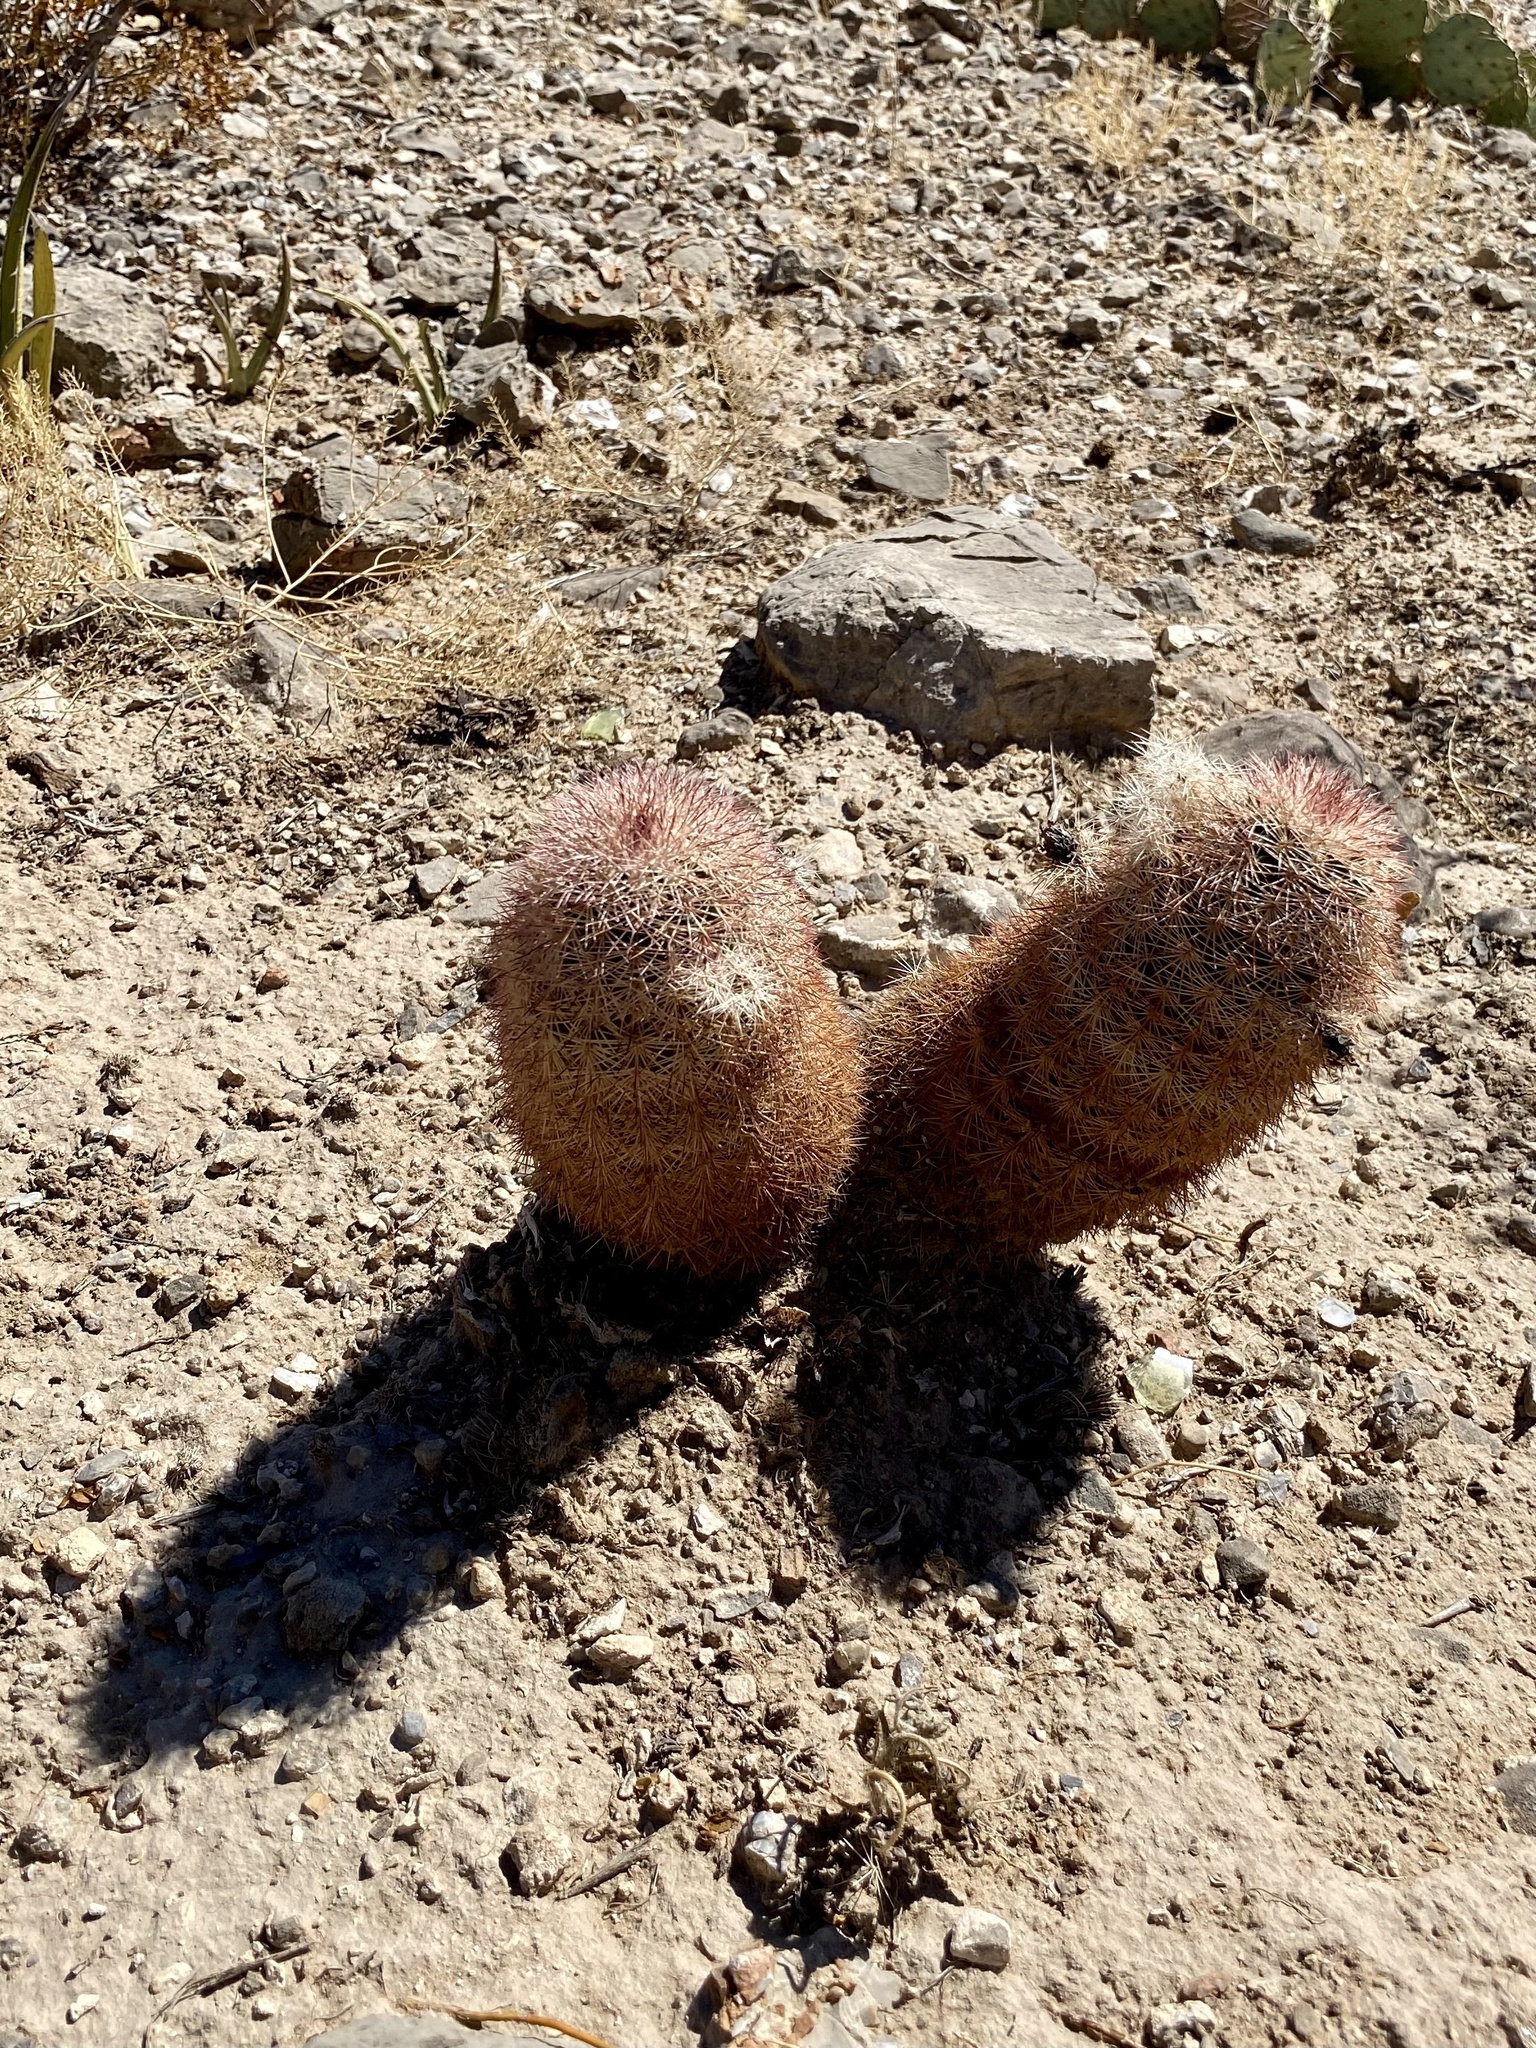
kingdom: Plantae
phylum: Tracheophyta
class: Magnoliopsida
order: Caryophyllales
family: Cactaceae
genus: Echinocereus
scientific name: Echinocereus dasyacanthus
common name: Spiny hedgehog cactus
